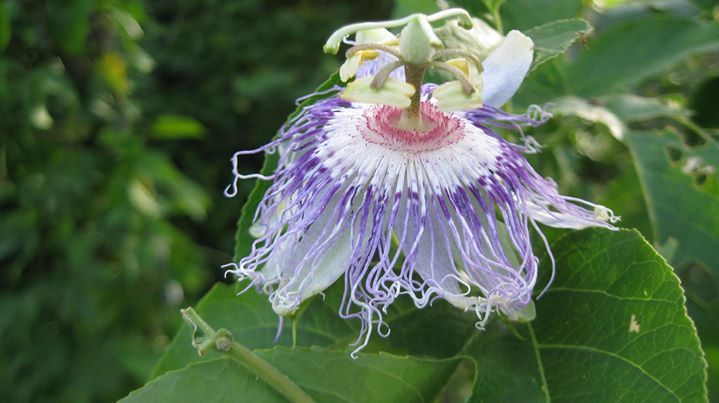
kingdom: Plantae
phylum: Tracheophyta
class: Magnoliopsida
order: Malpighiales
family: Passifloraceae
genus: Passiflora
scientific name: Passiflora incarnata
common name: Apricot-vine
